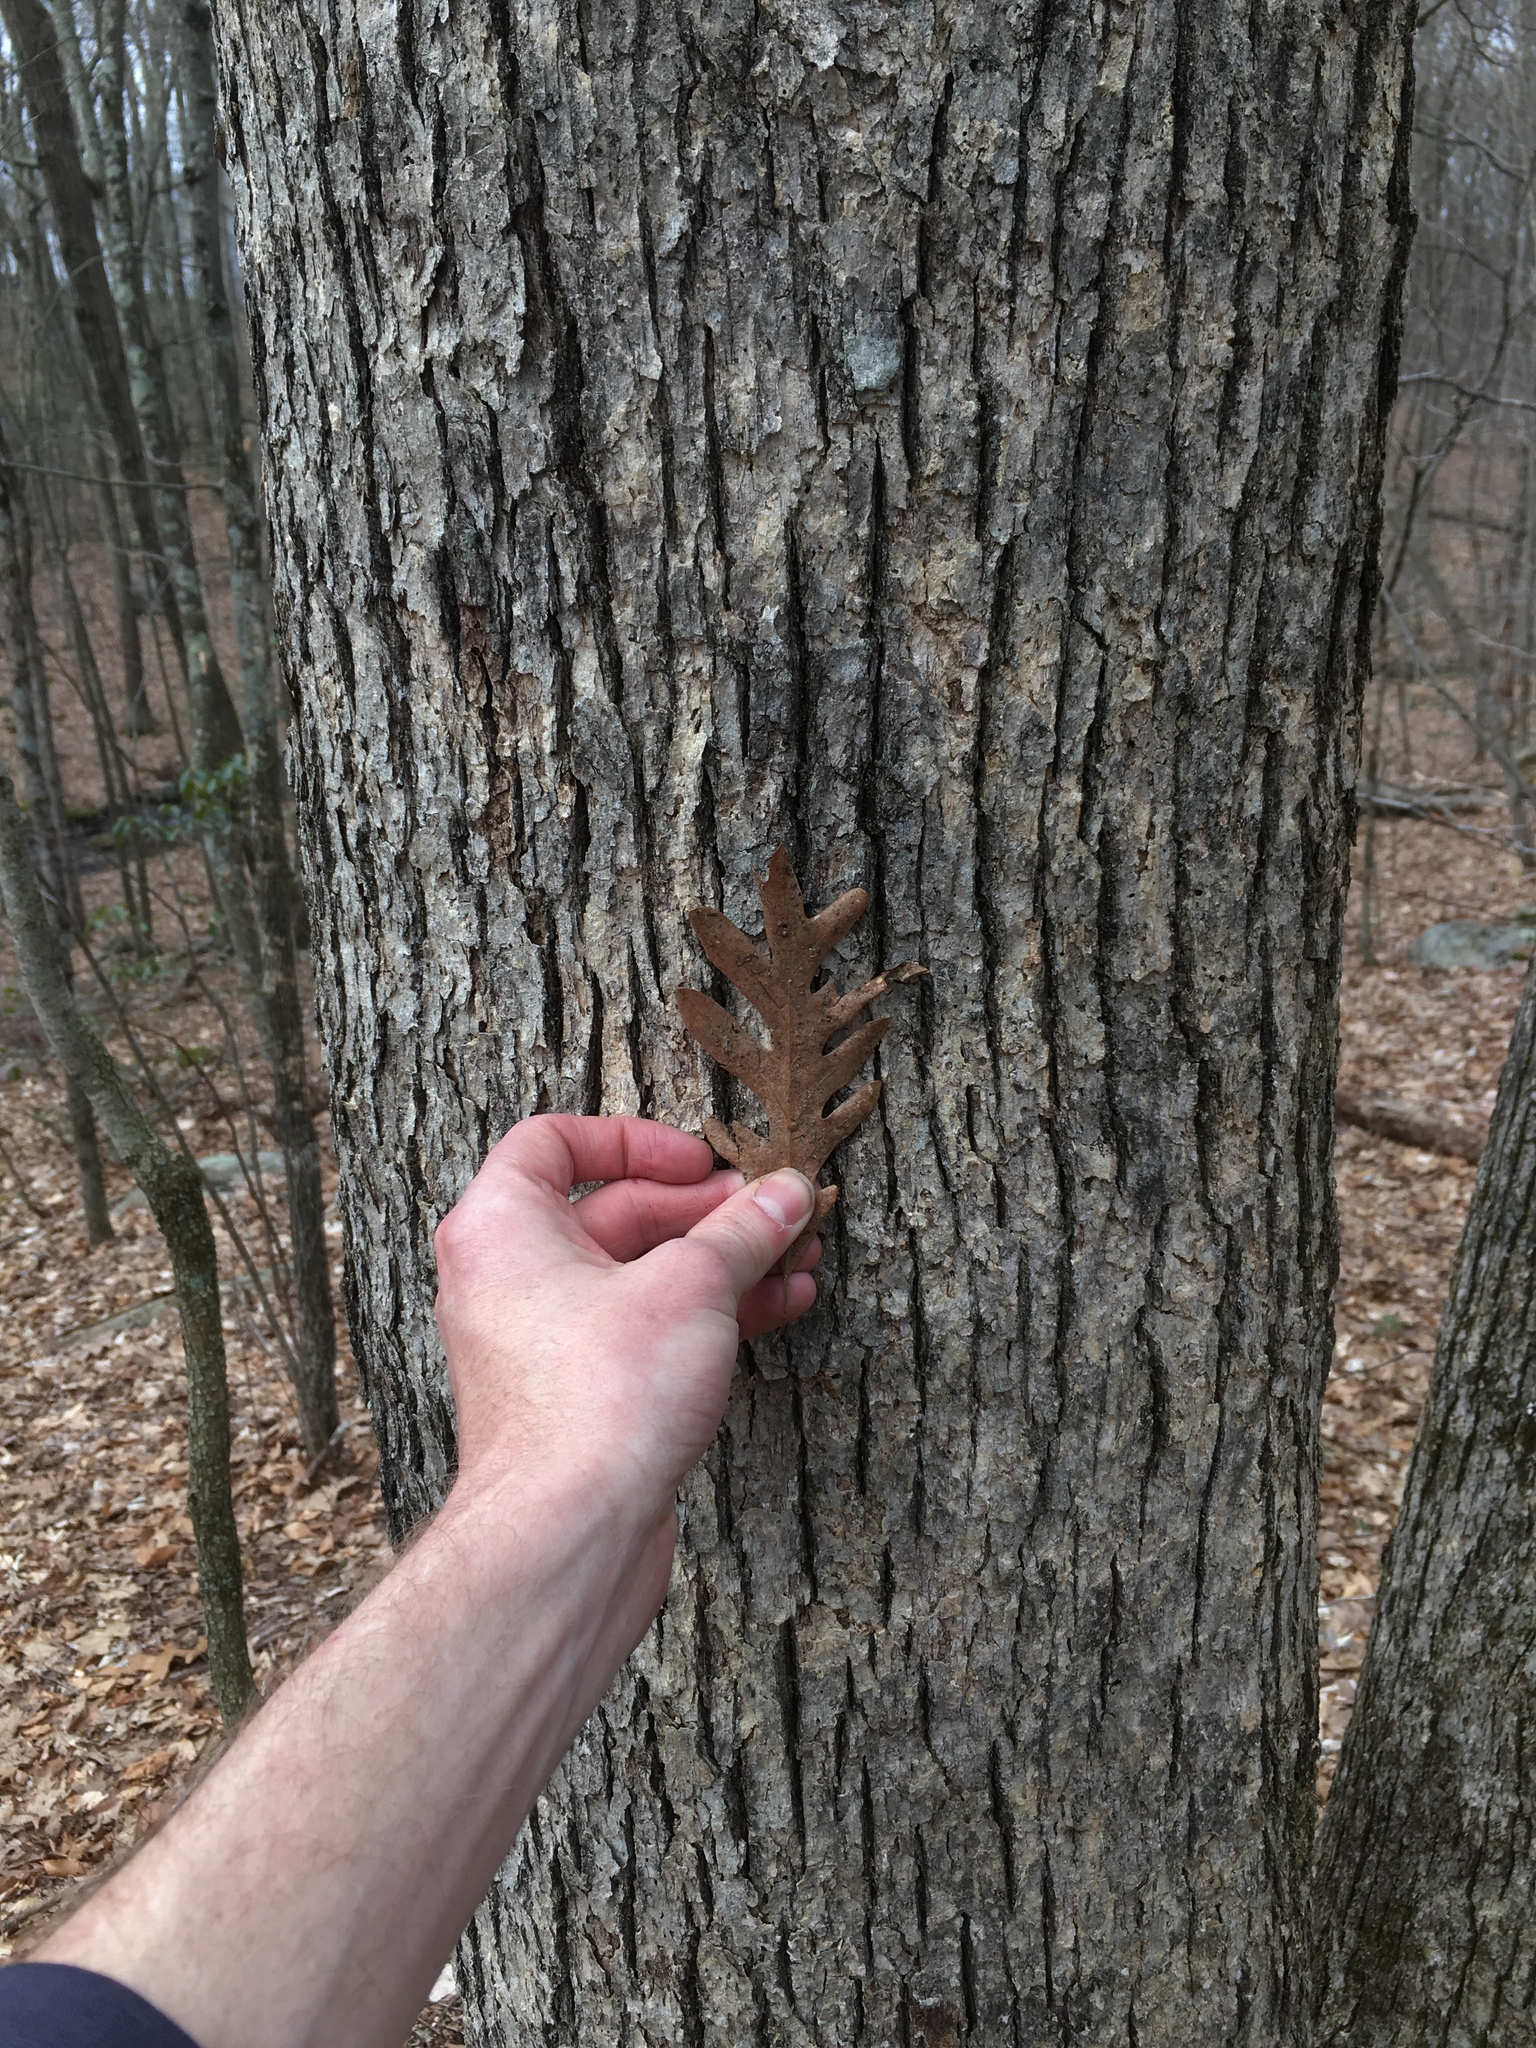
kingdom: Plantae
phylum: Tracheophyta
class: Magnoliopsida
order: Fagales
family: Fagaceae
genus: Quercus
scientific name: Quercus alba
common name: White oak
